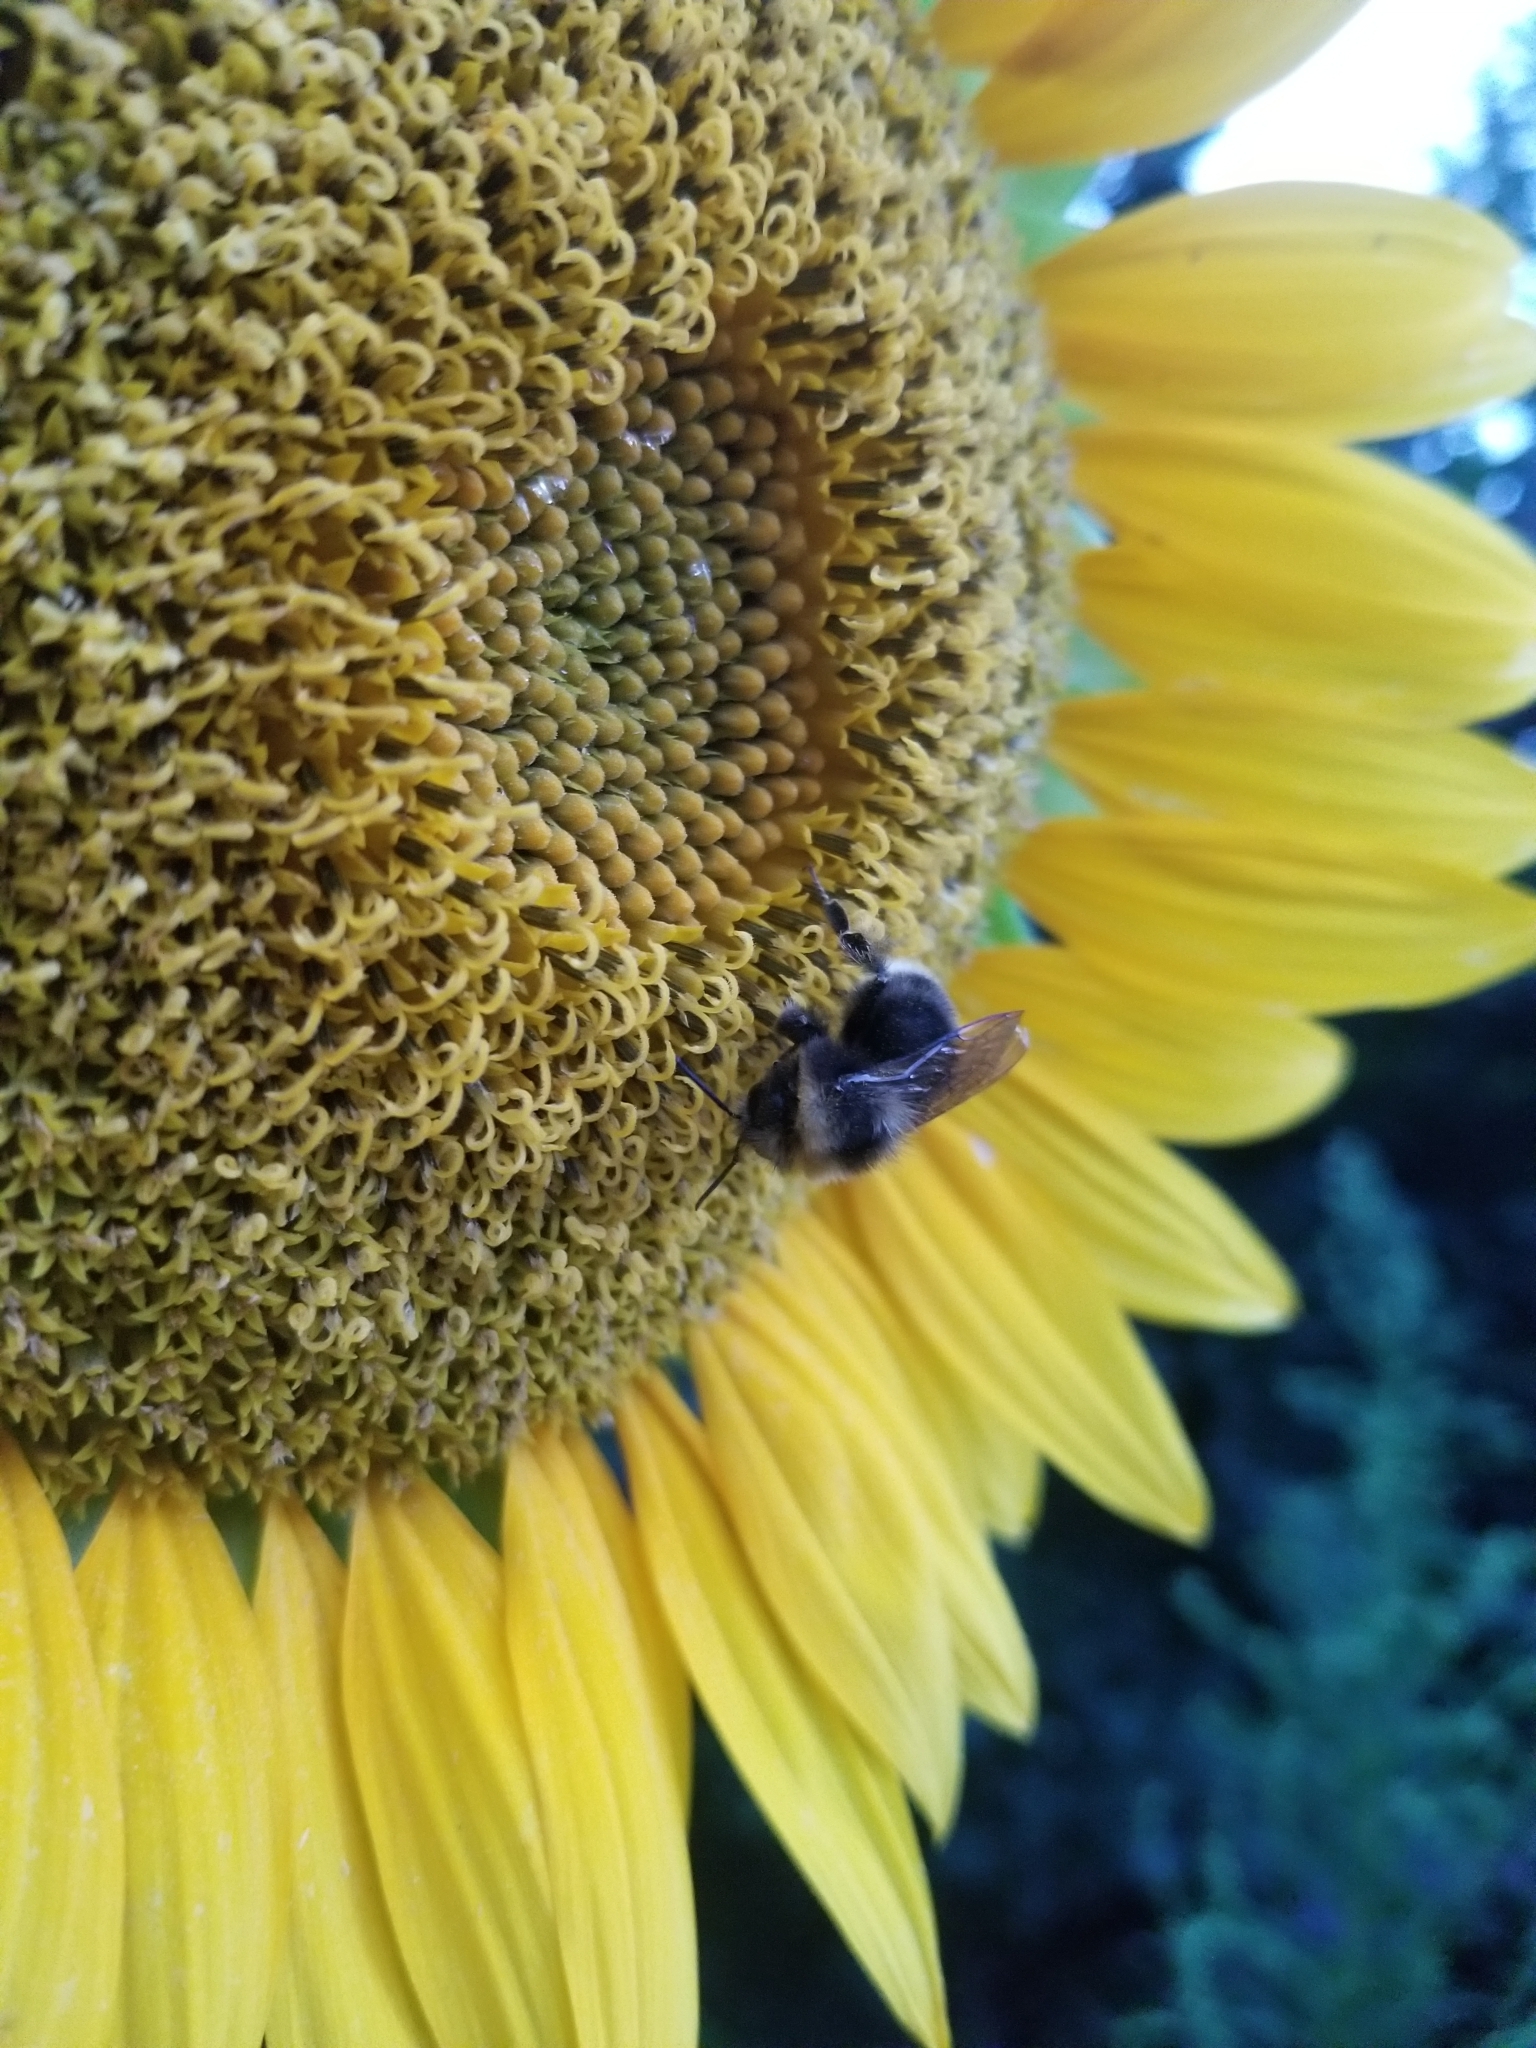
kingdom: Animalia
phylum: Arthropoda
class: Insecta
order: Hymenoptera
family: Apidae
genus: Bombus
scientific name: Bombus occidentalis
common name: Western bumble bee
